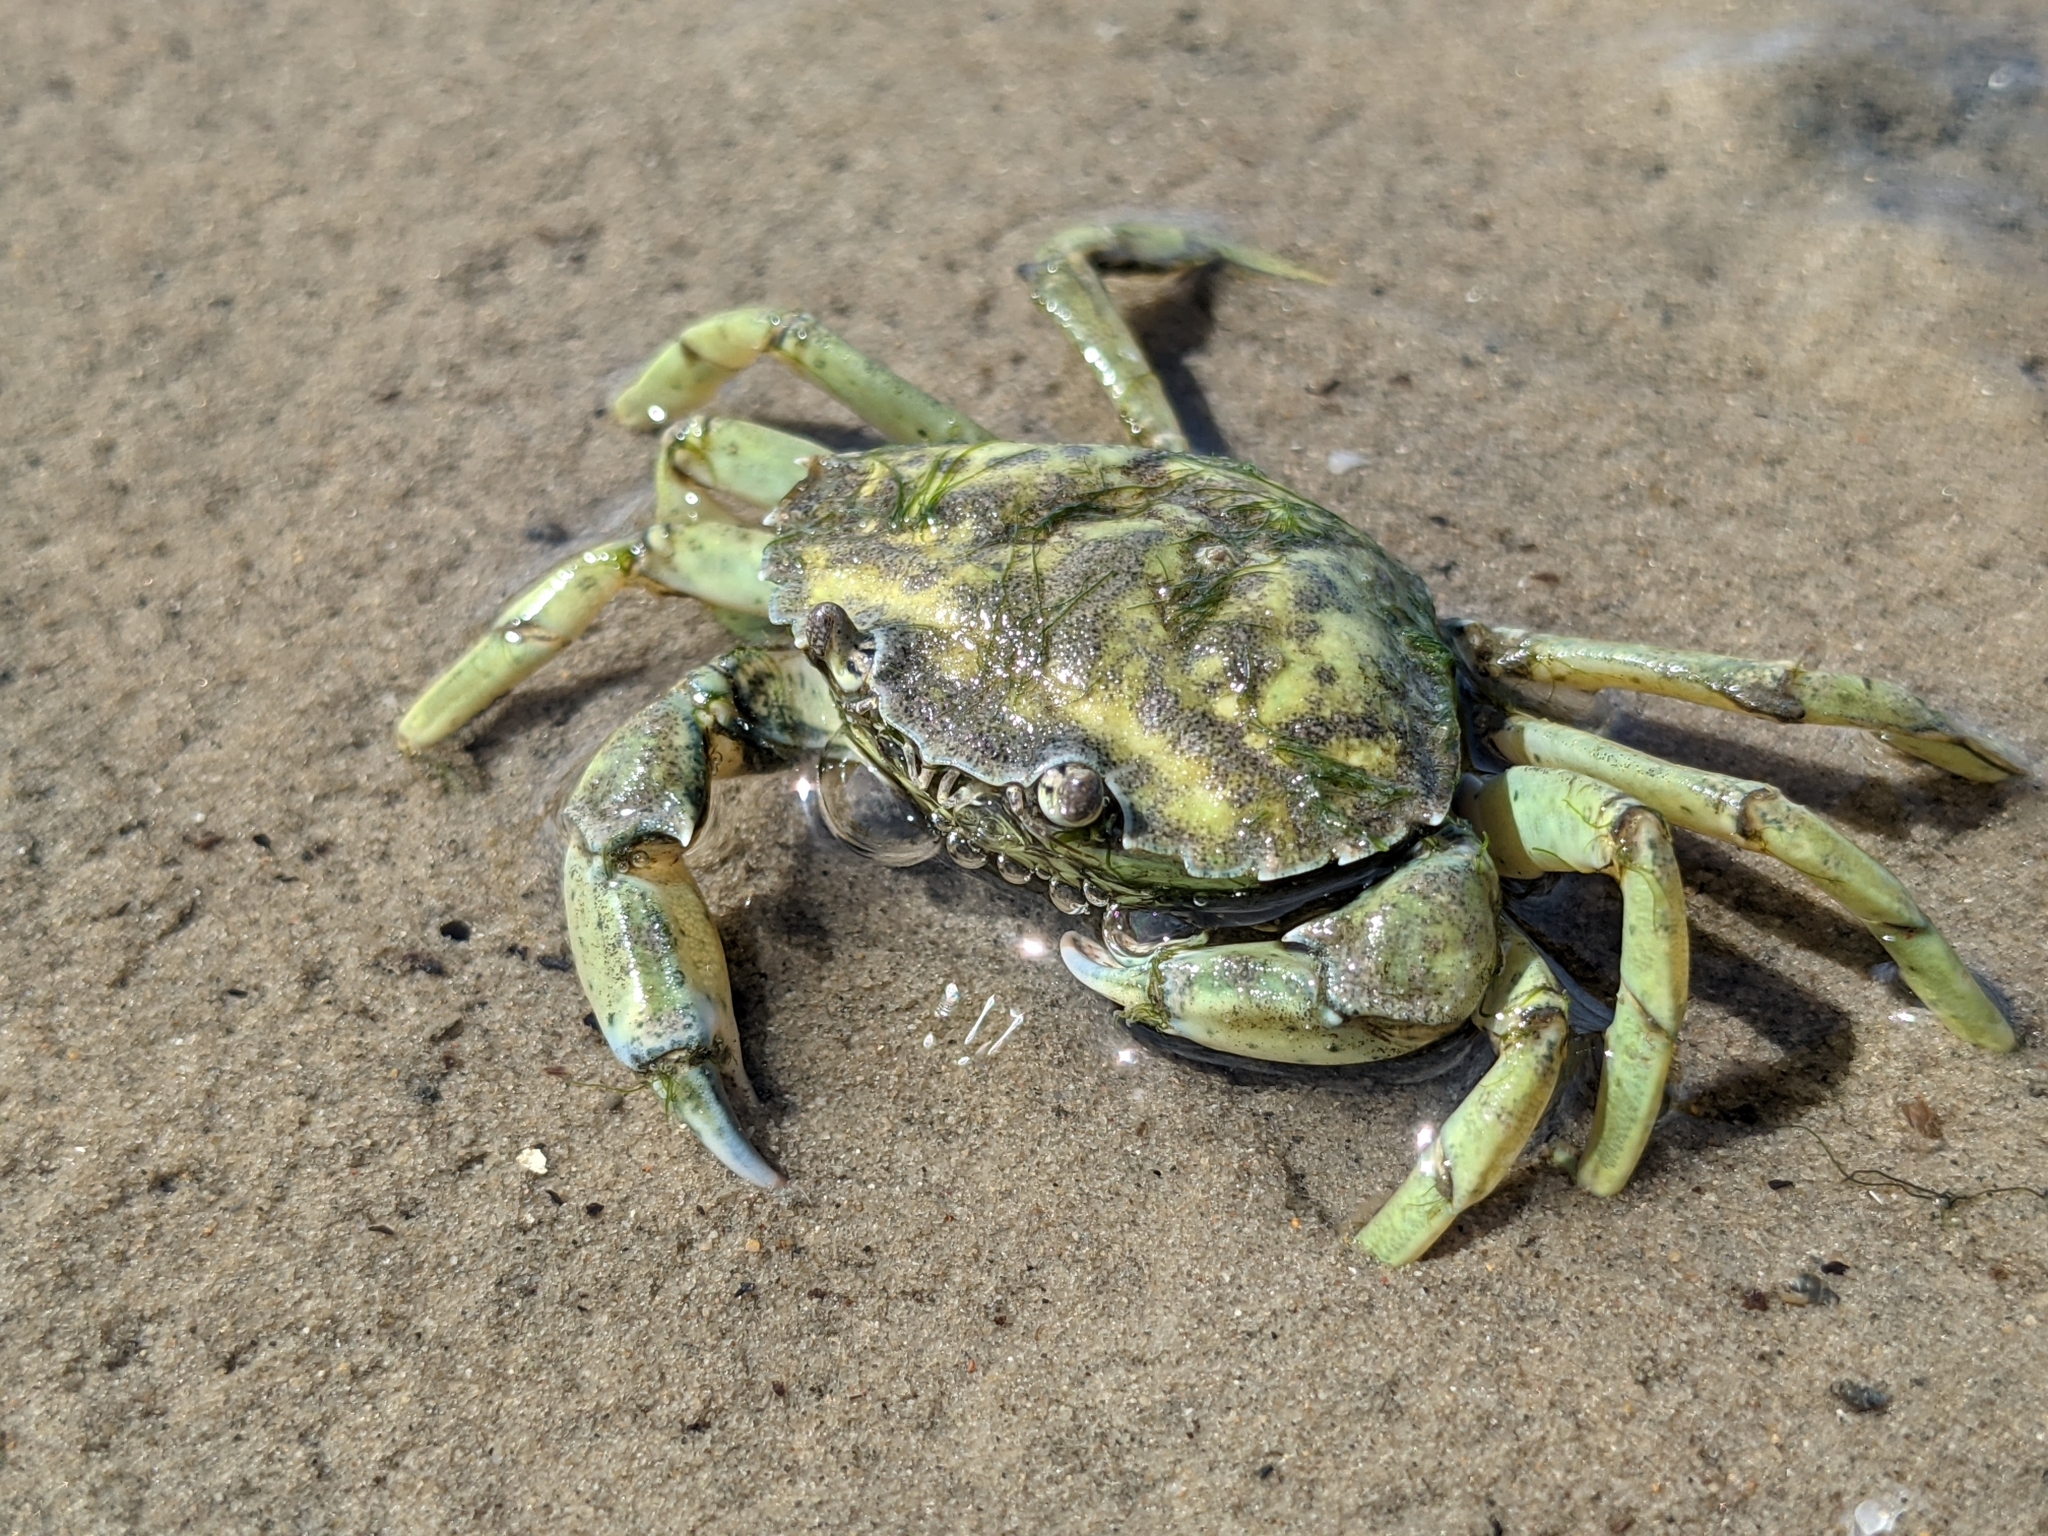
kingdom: Animalia
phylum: Arthropoda
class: Malacostraca
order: Decapoda
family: Carcinidae
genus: Carcinus
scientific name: Carcinus maenas
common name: European green crab
